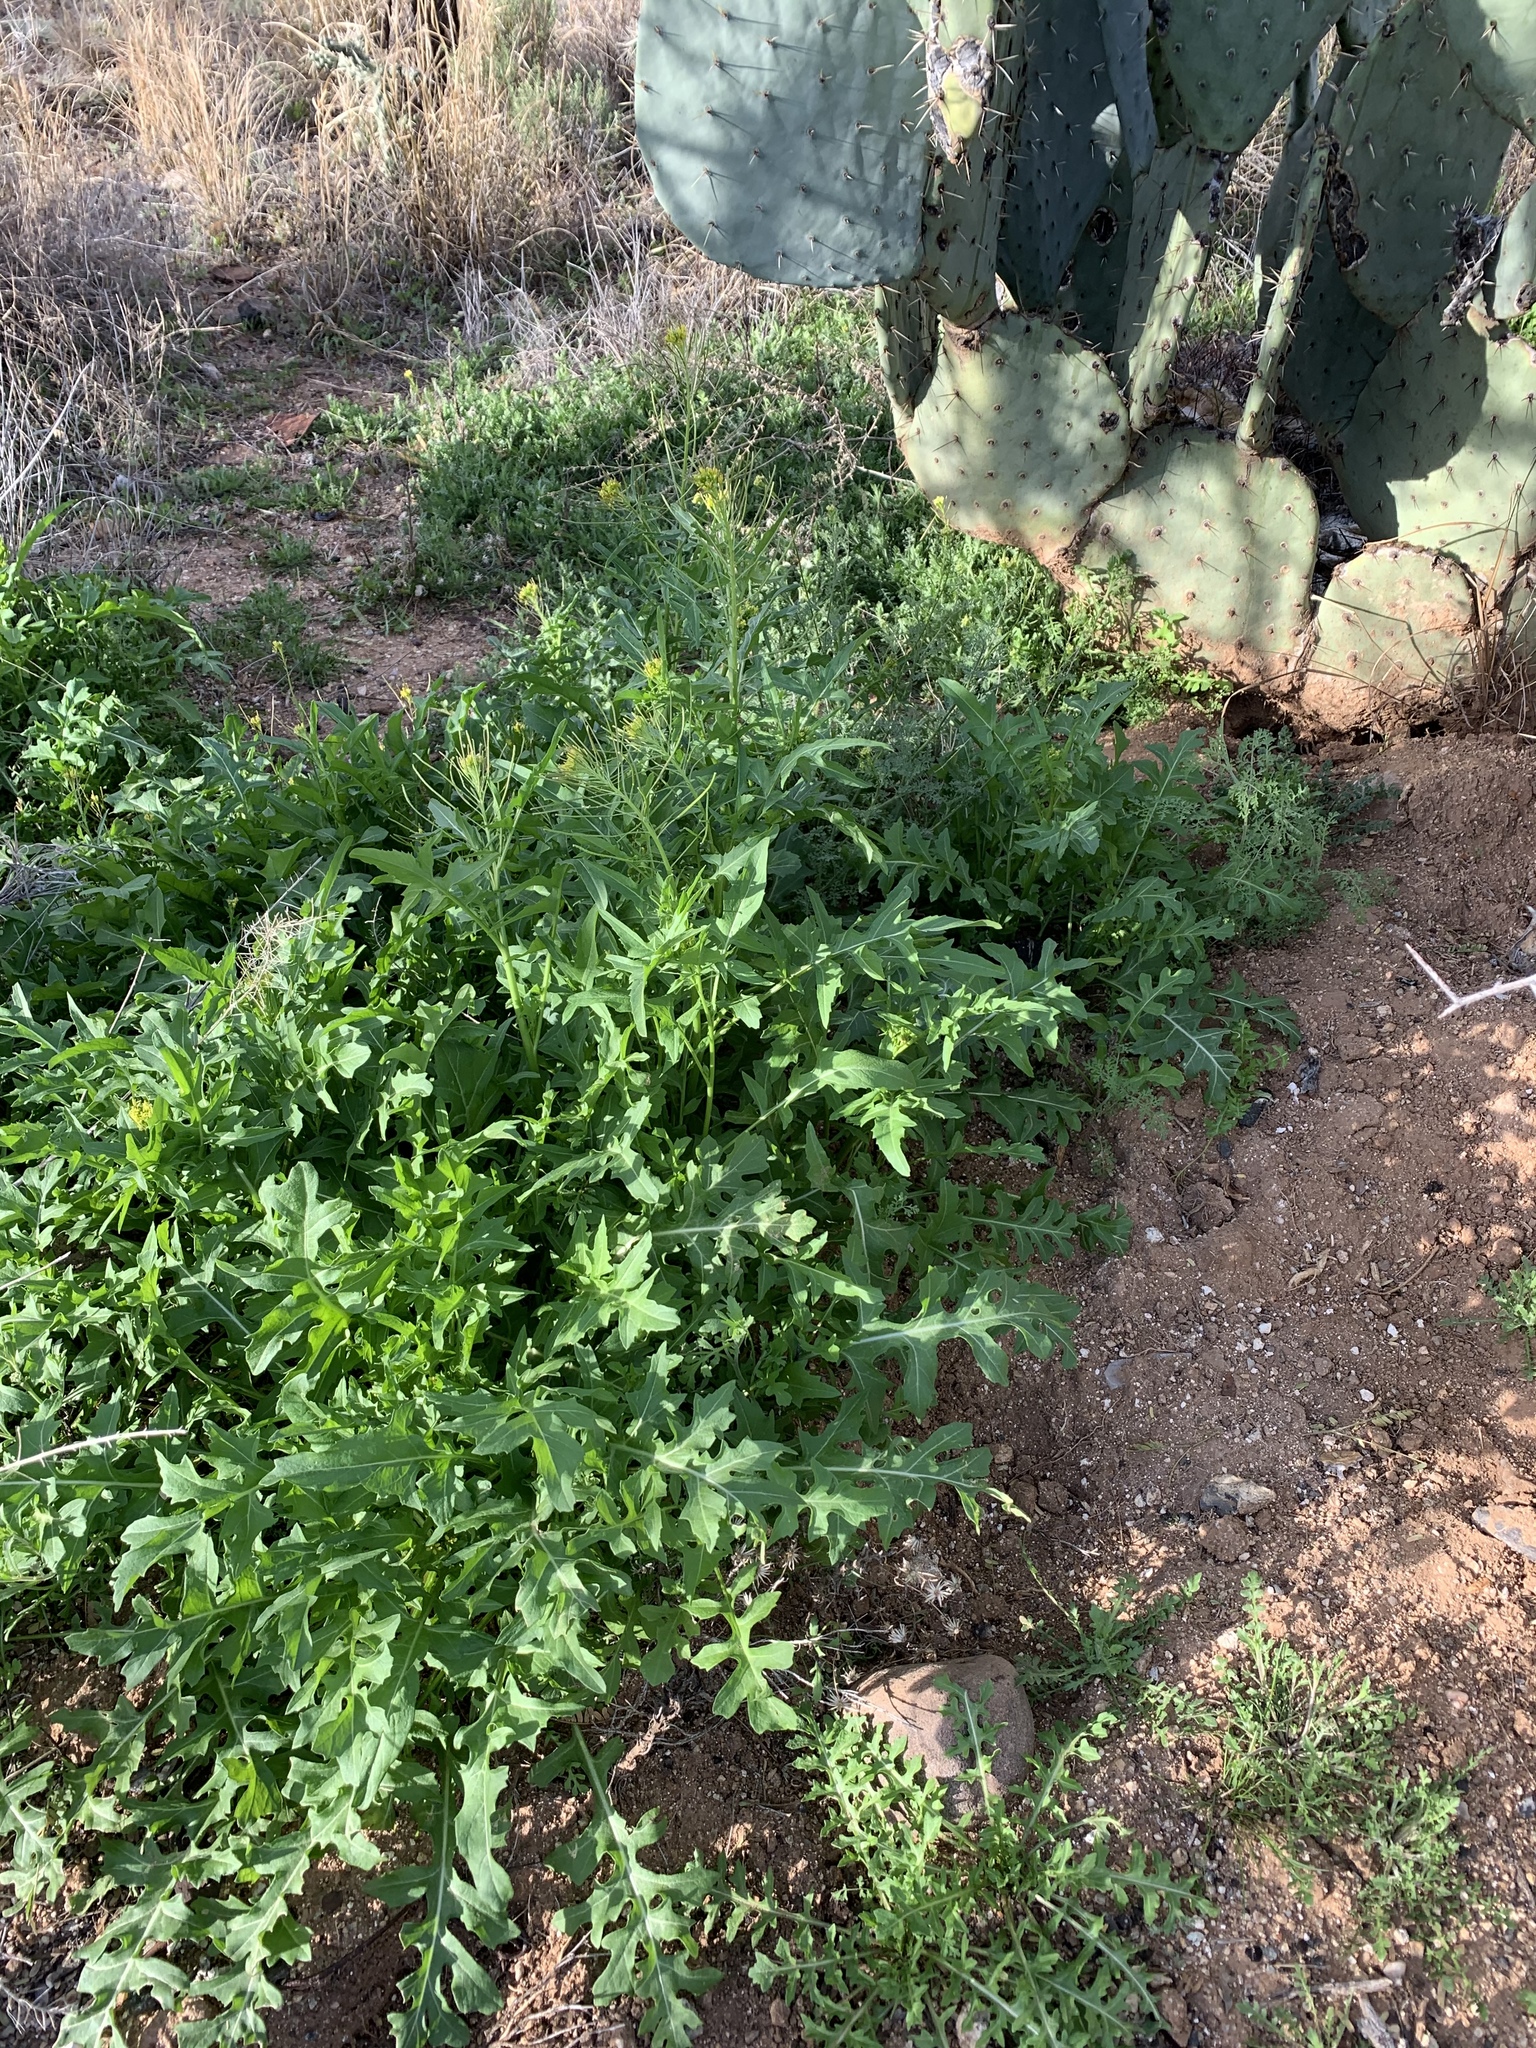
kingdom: Plantae
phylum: Tracheophyta
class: Magnoliopsida
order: Brassicales
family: Brassicaceae
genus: Sisymbrium
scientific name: Sisymbrium irio
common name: London rocket
